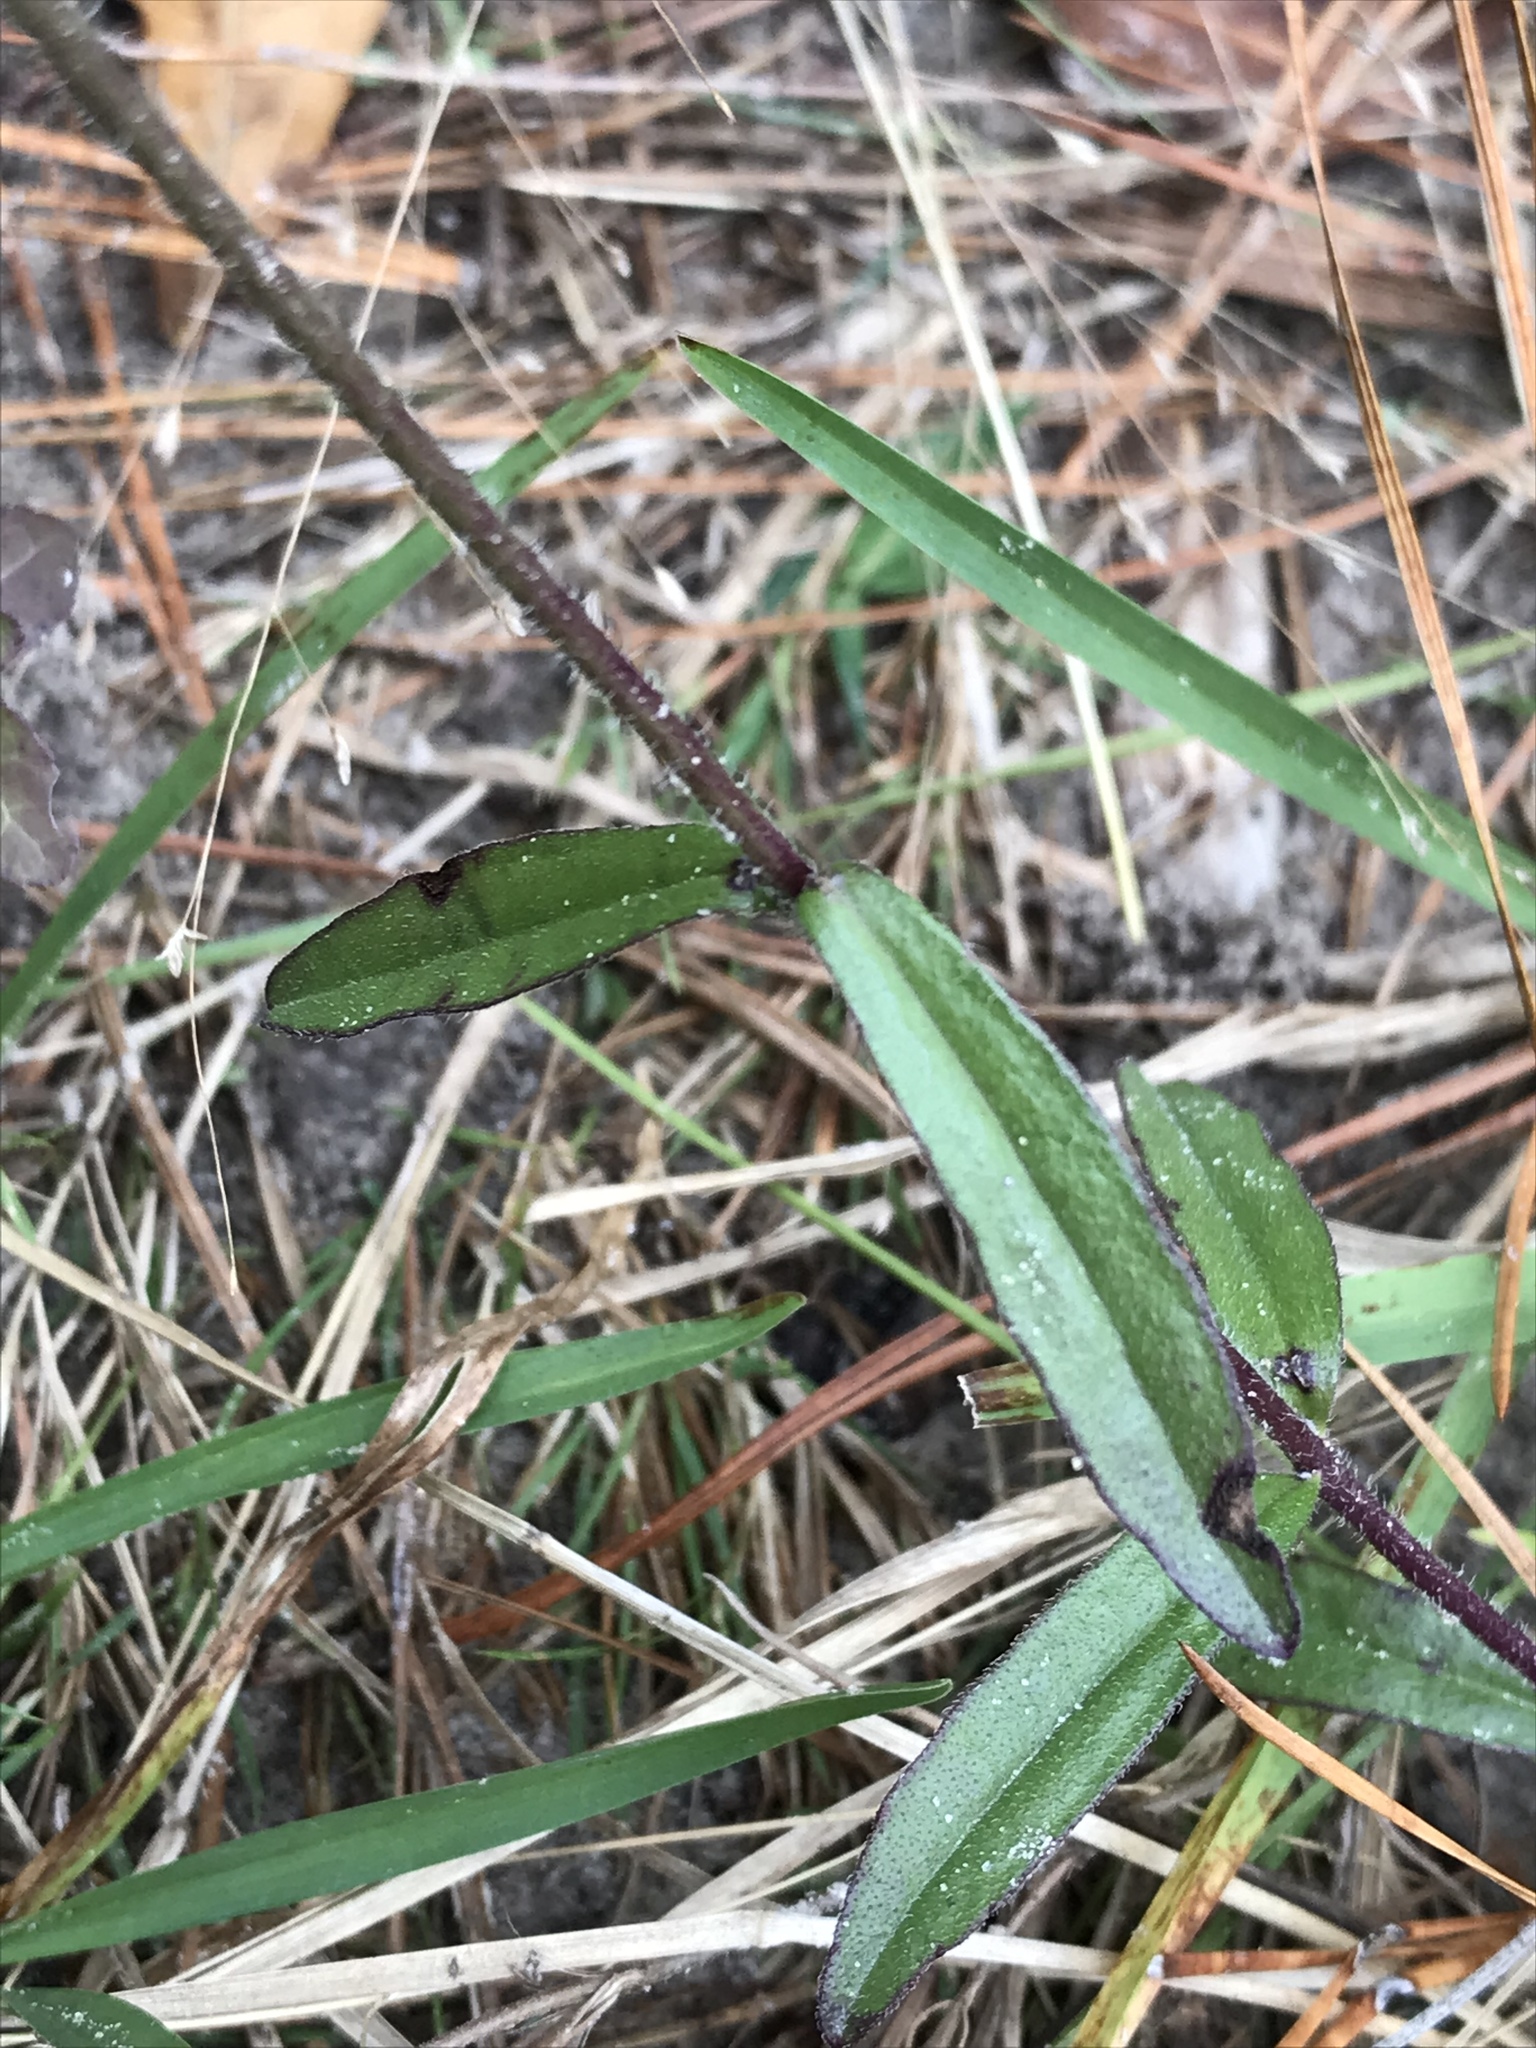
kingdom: Plantae
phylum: Tracheophyta
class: Magnoliopsida
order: Lamiales
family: Orobanchaceae
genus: Buchnera
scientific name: Buchnera floridana
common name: Florida bluehearts
